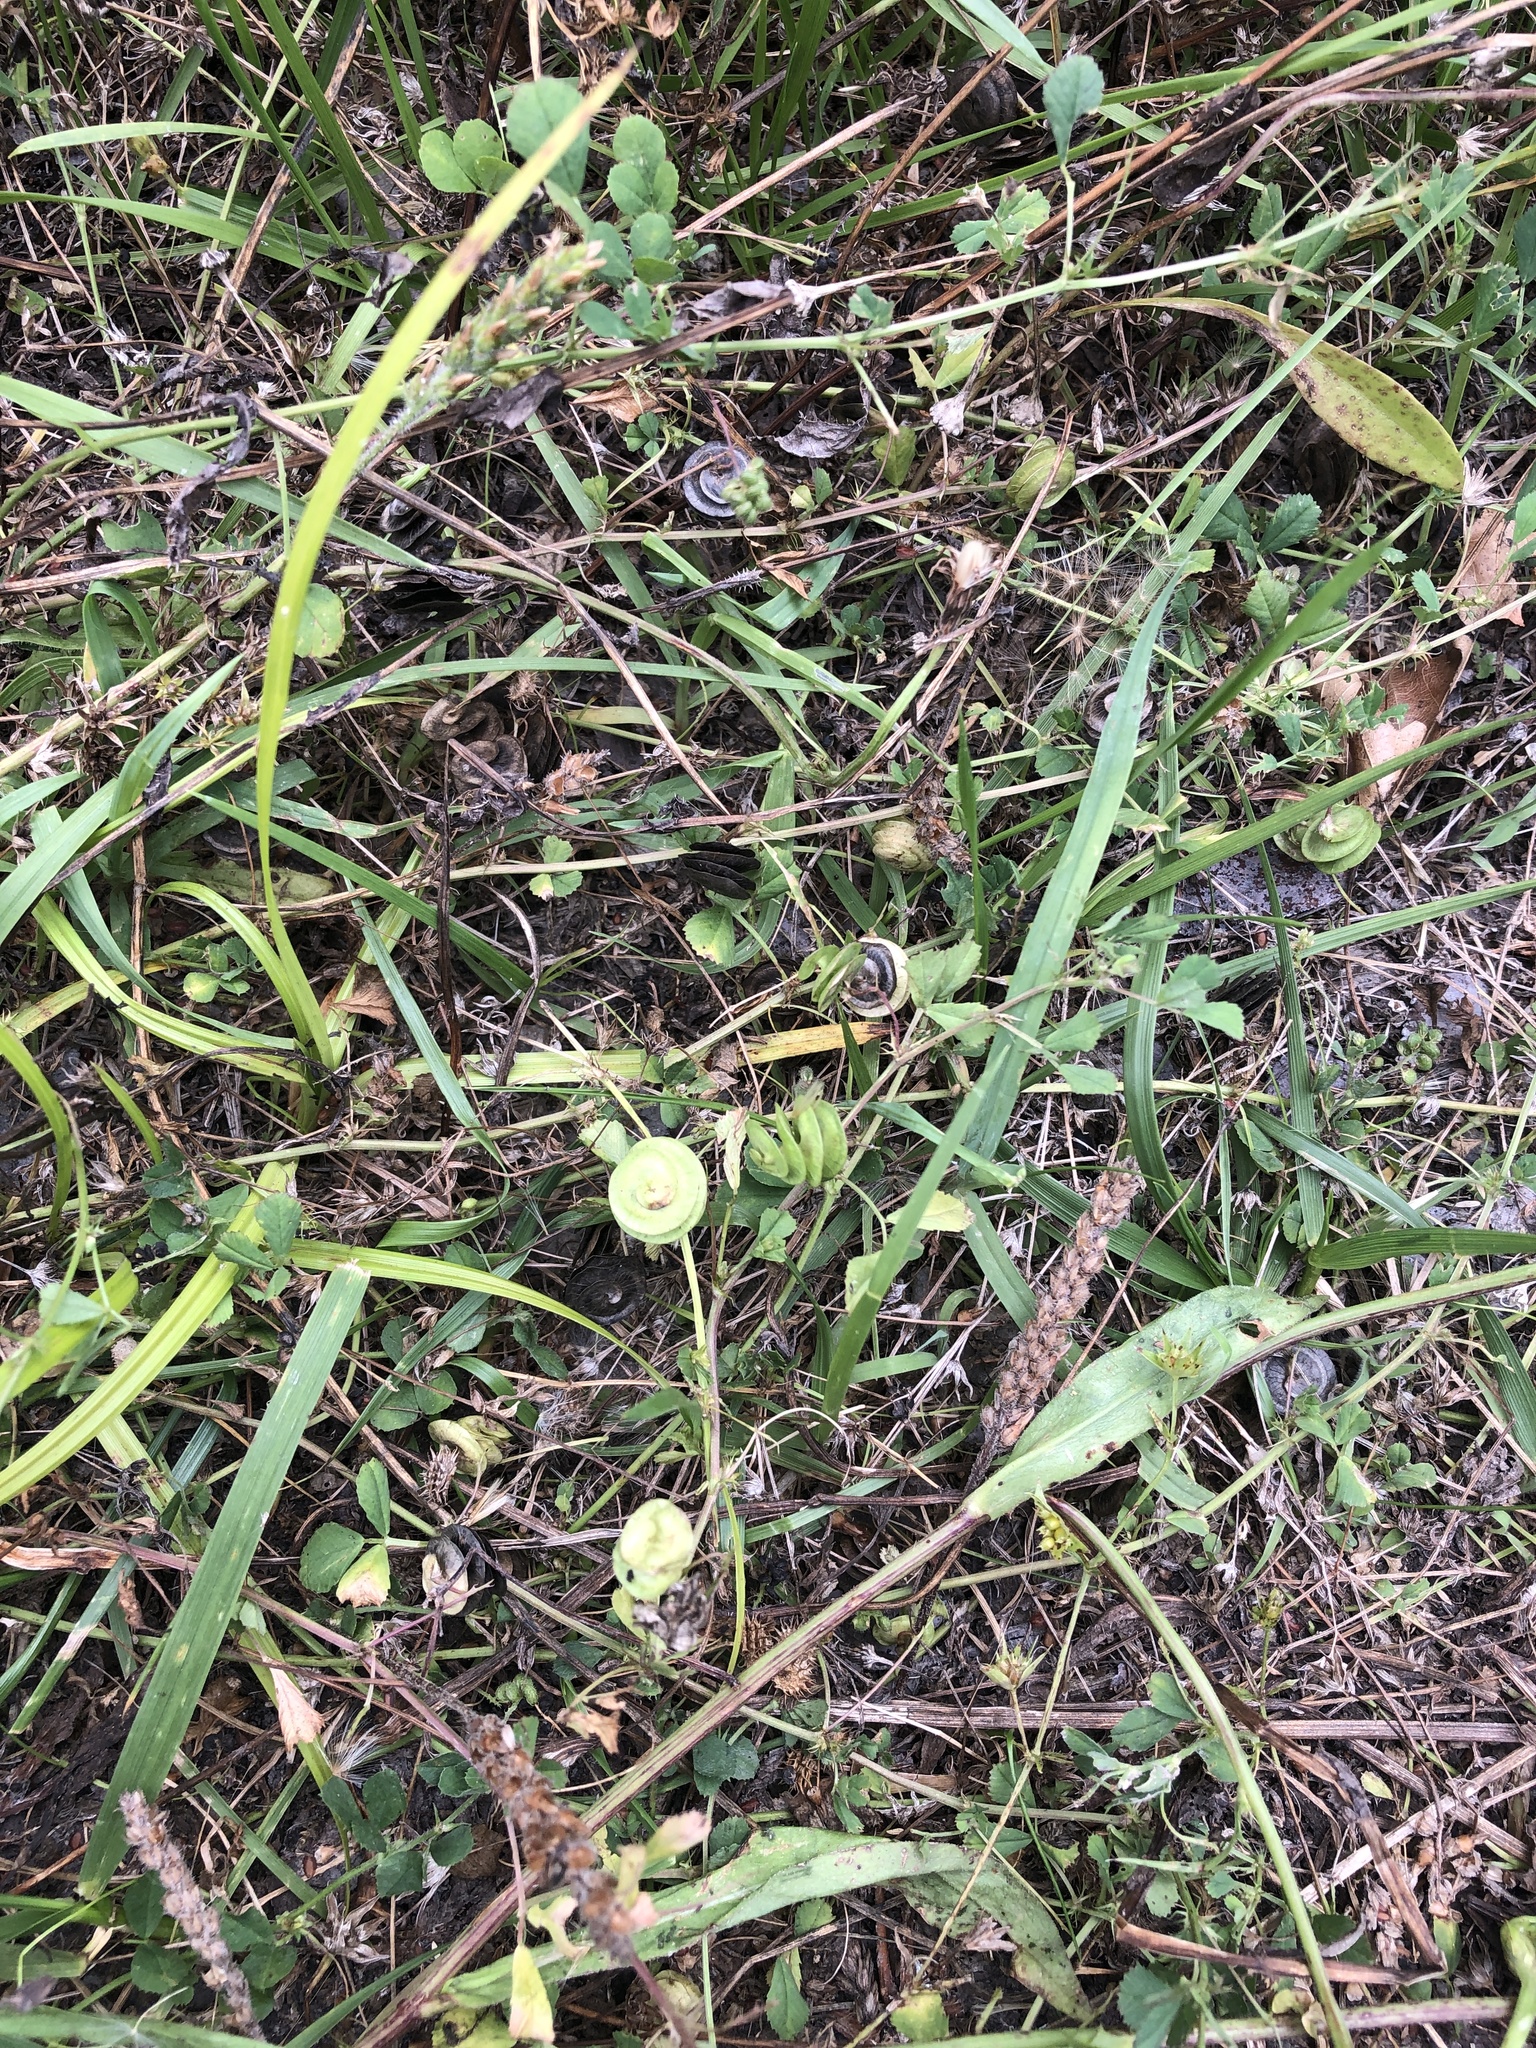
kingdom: Plantae
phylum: Tracheophyta
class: Magnoliopsida
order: Fabales
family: Fabaceae
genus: Medicago
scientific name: Medicago orbicularis
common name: Button medick
